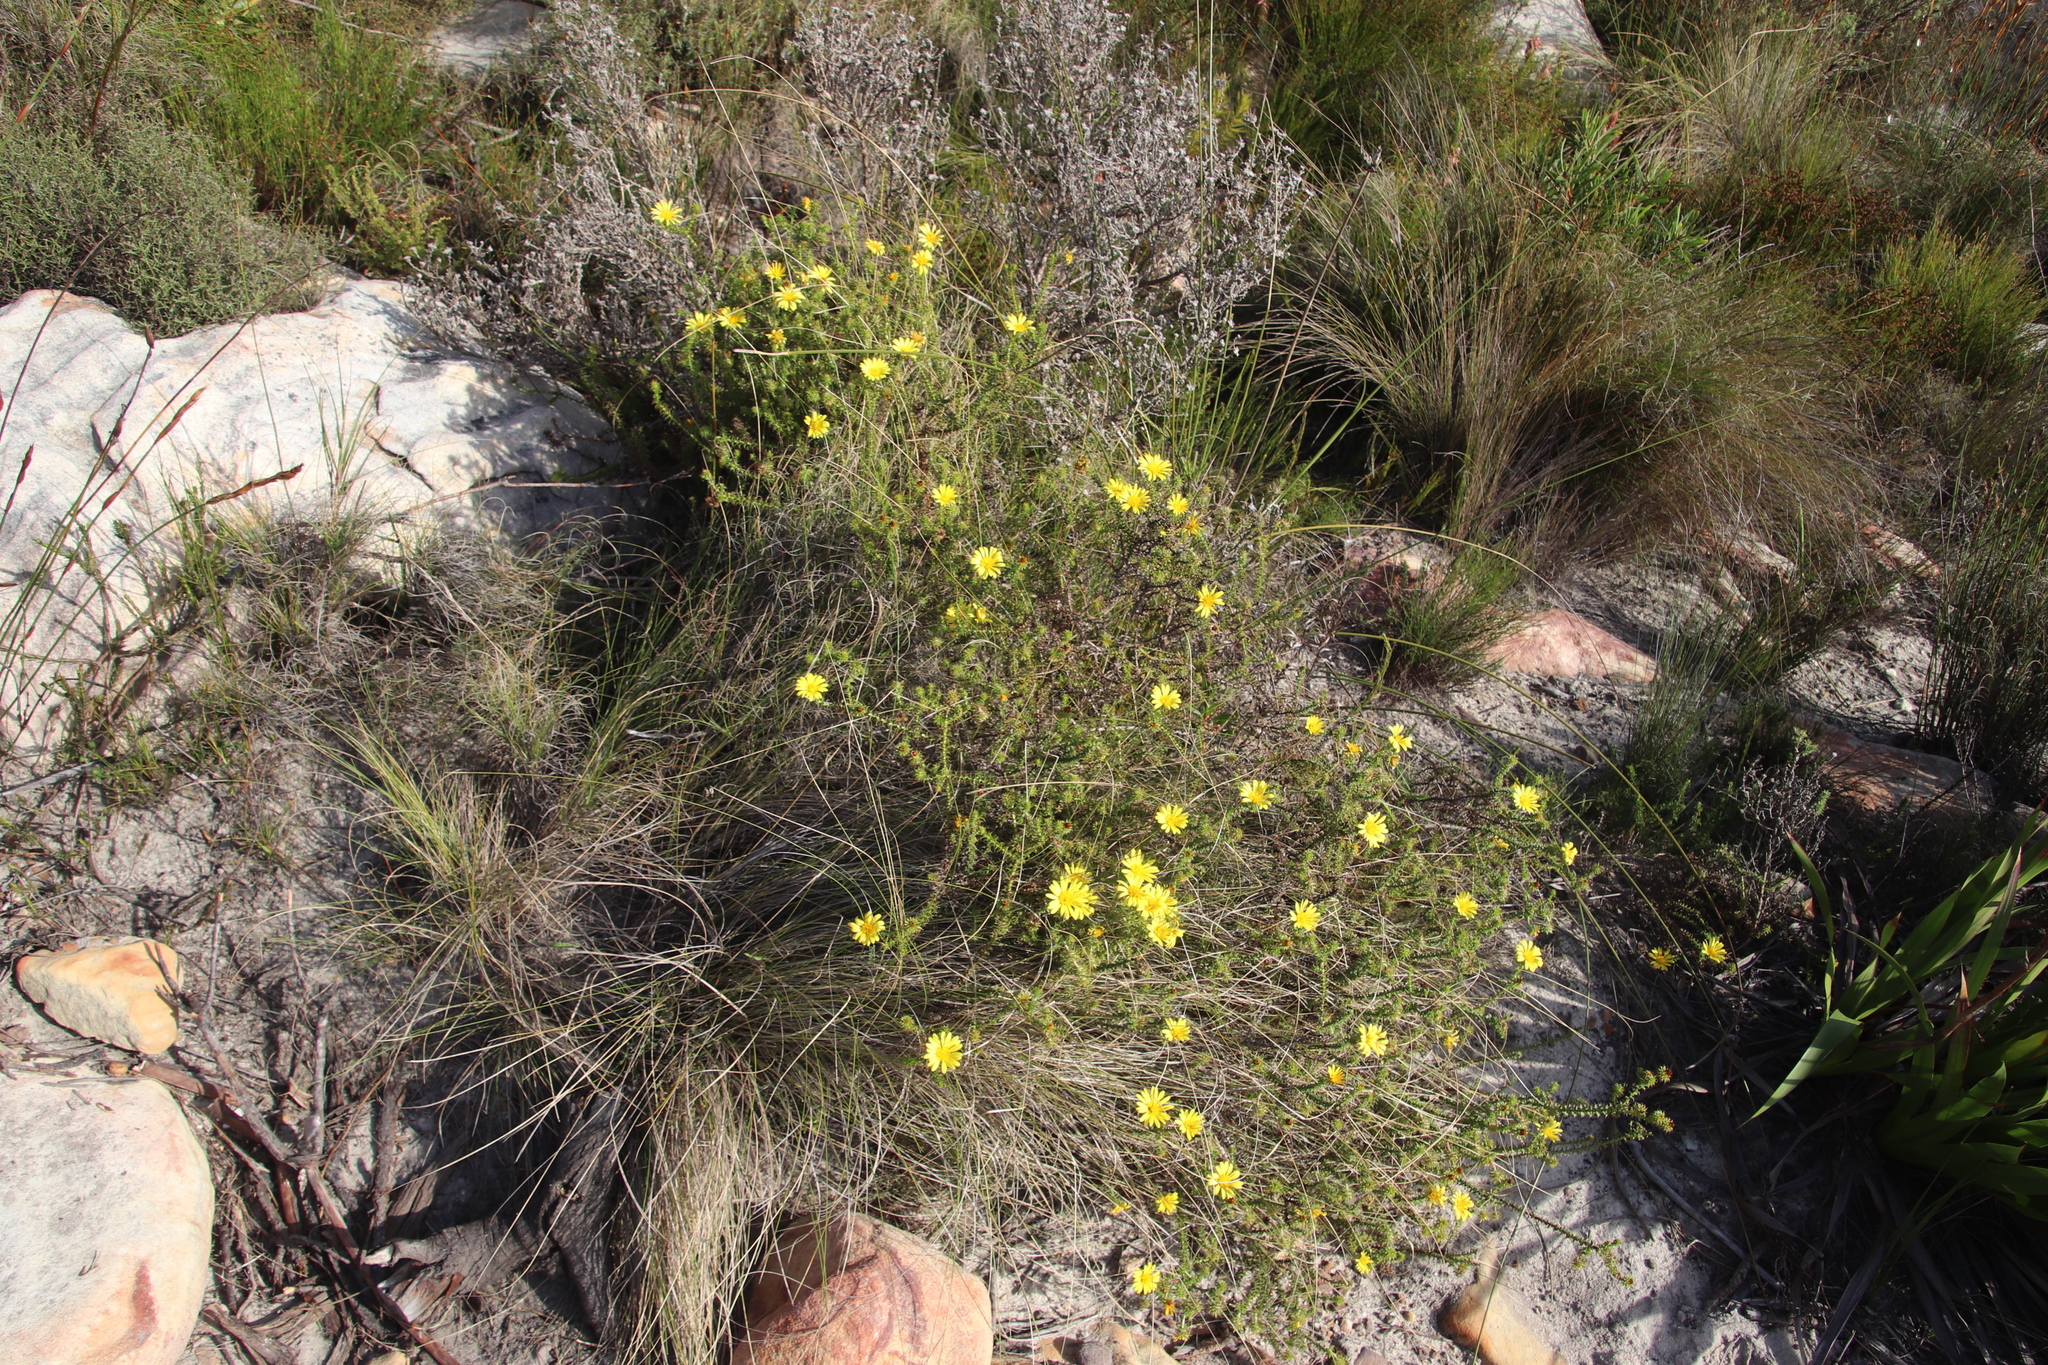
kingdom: Plantae
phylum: Tracheophyta
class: Magnoliopsida
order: Asterales
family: Asteraceae
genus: Cullumia
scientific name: Cullumia setosa
